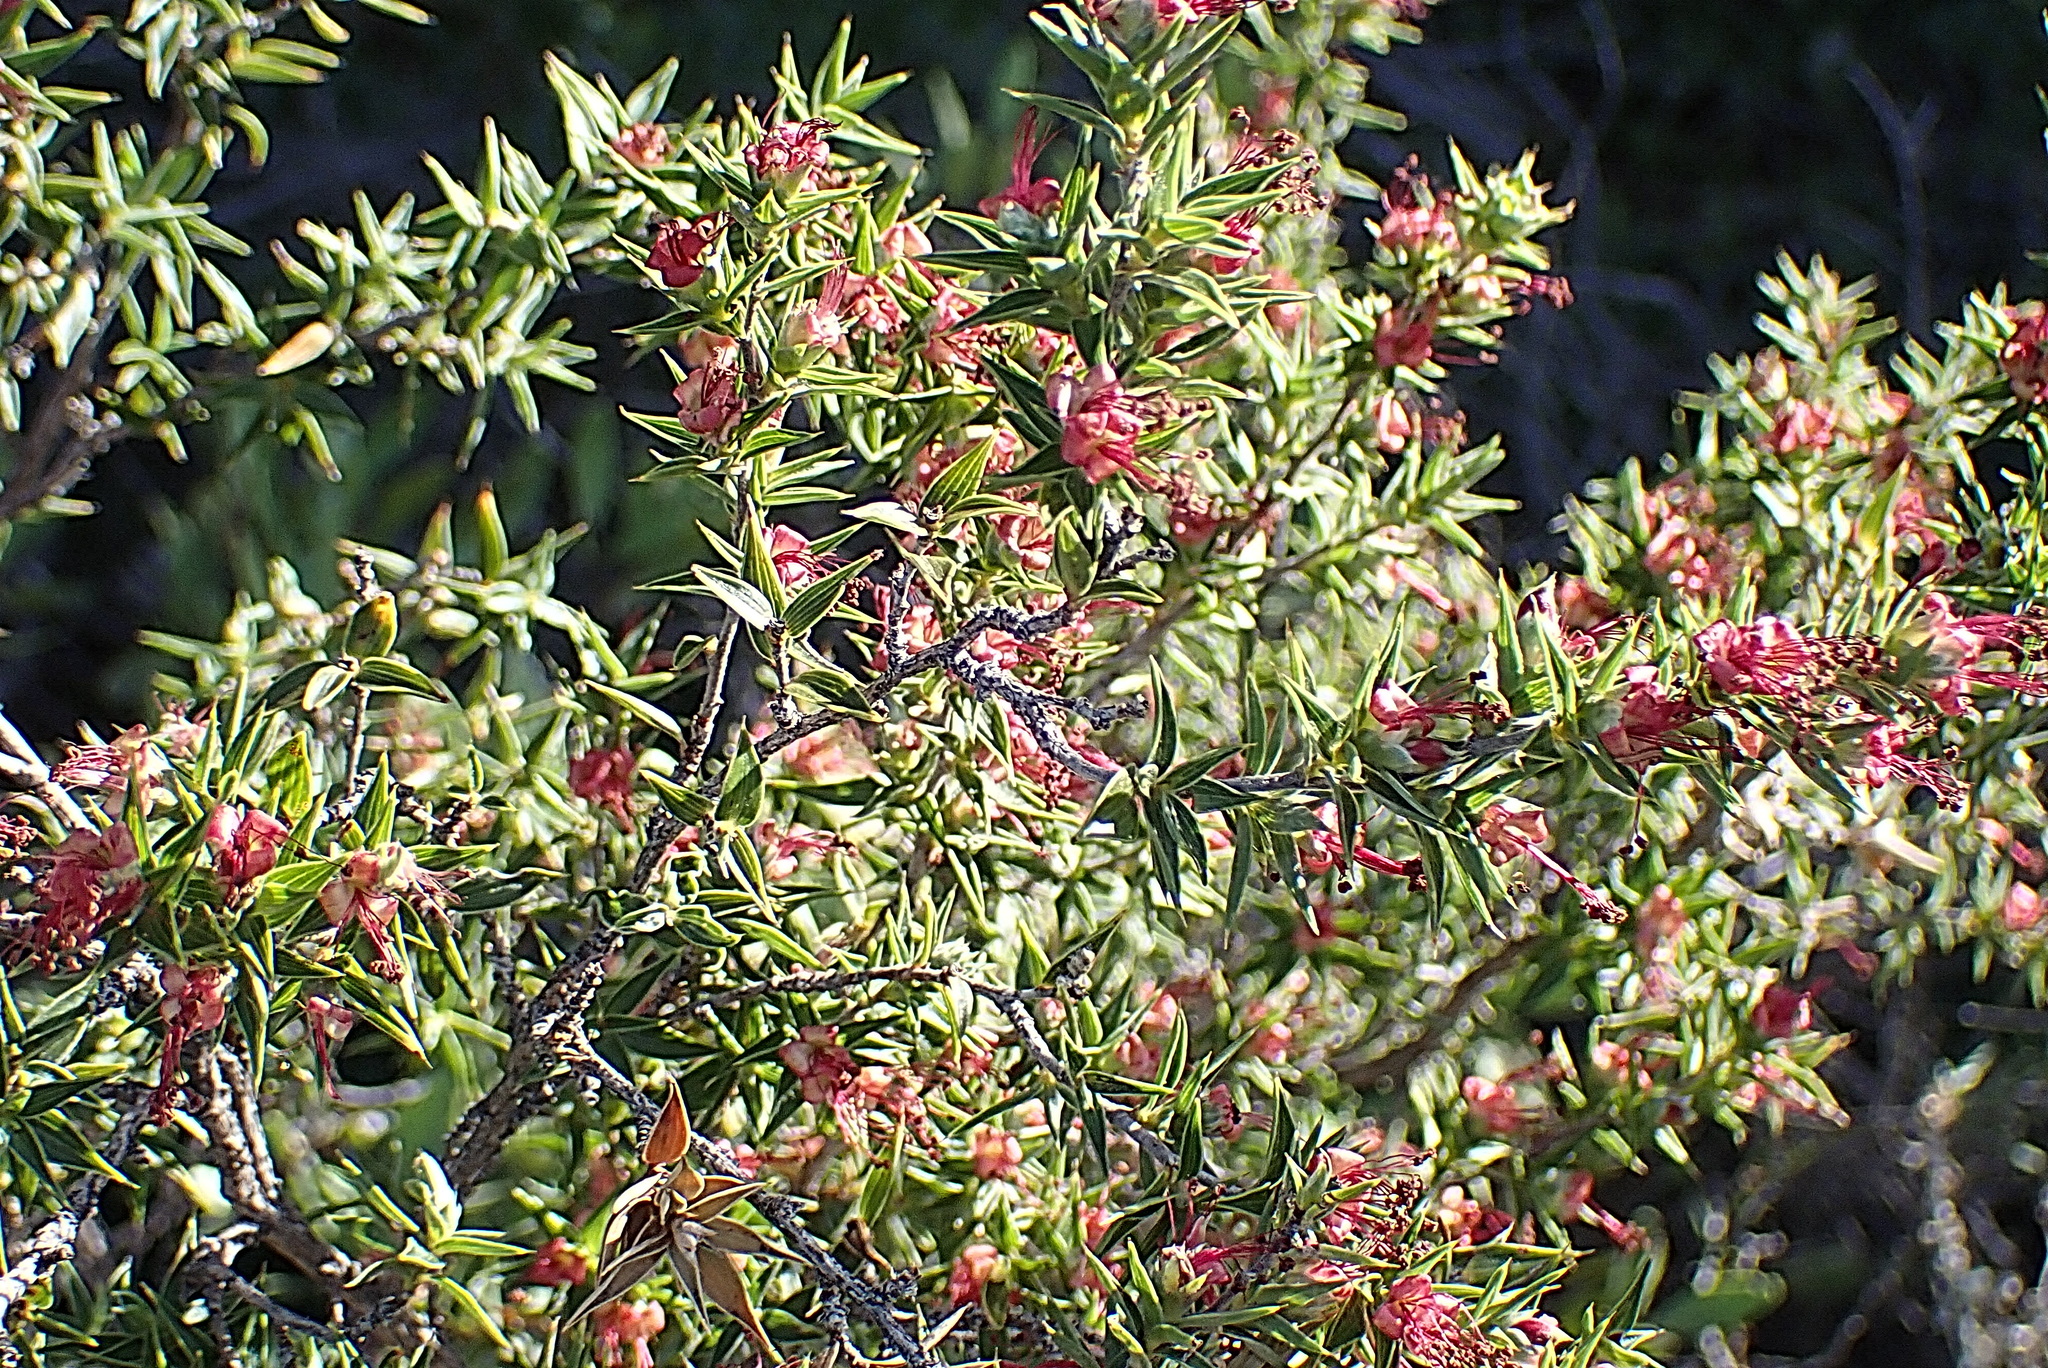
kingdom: Plantae
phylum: Tracheophyta
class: Magnoliopsida
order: Rosales
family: Rosaceae
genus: Cliffortia
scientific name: Cliffortia ruscifolia
